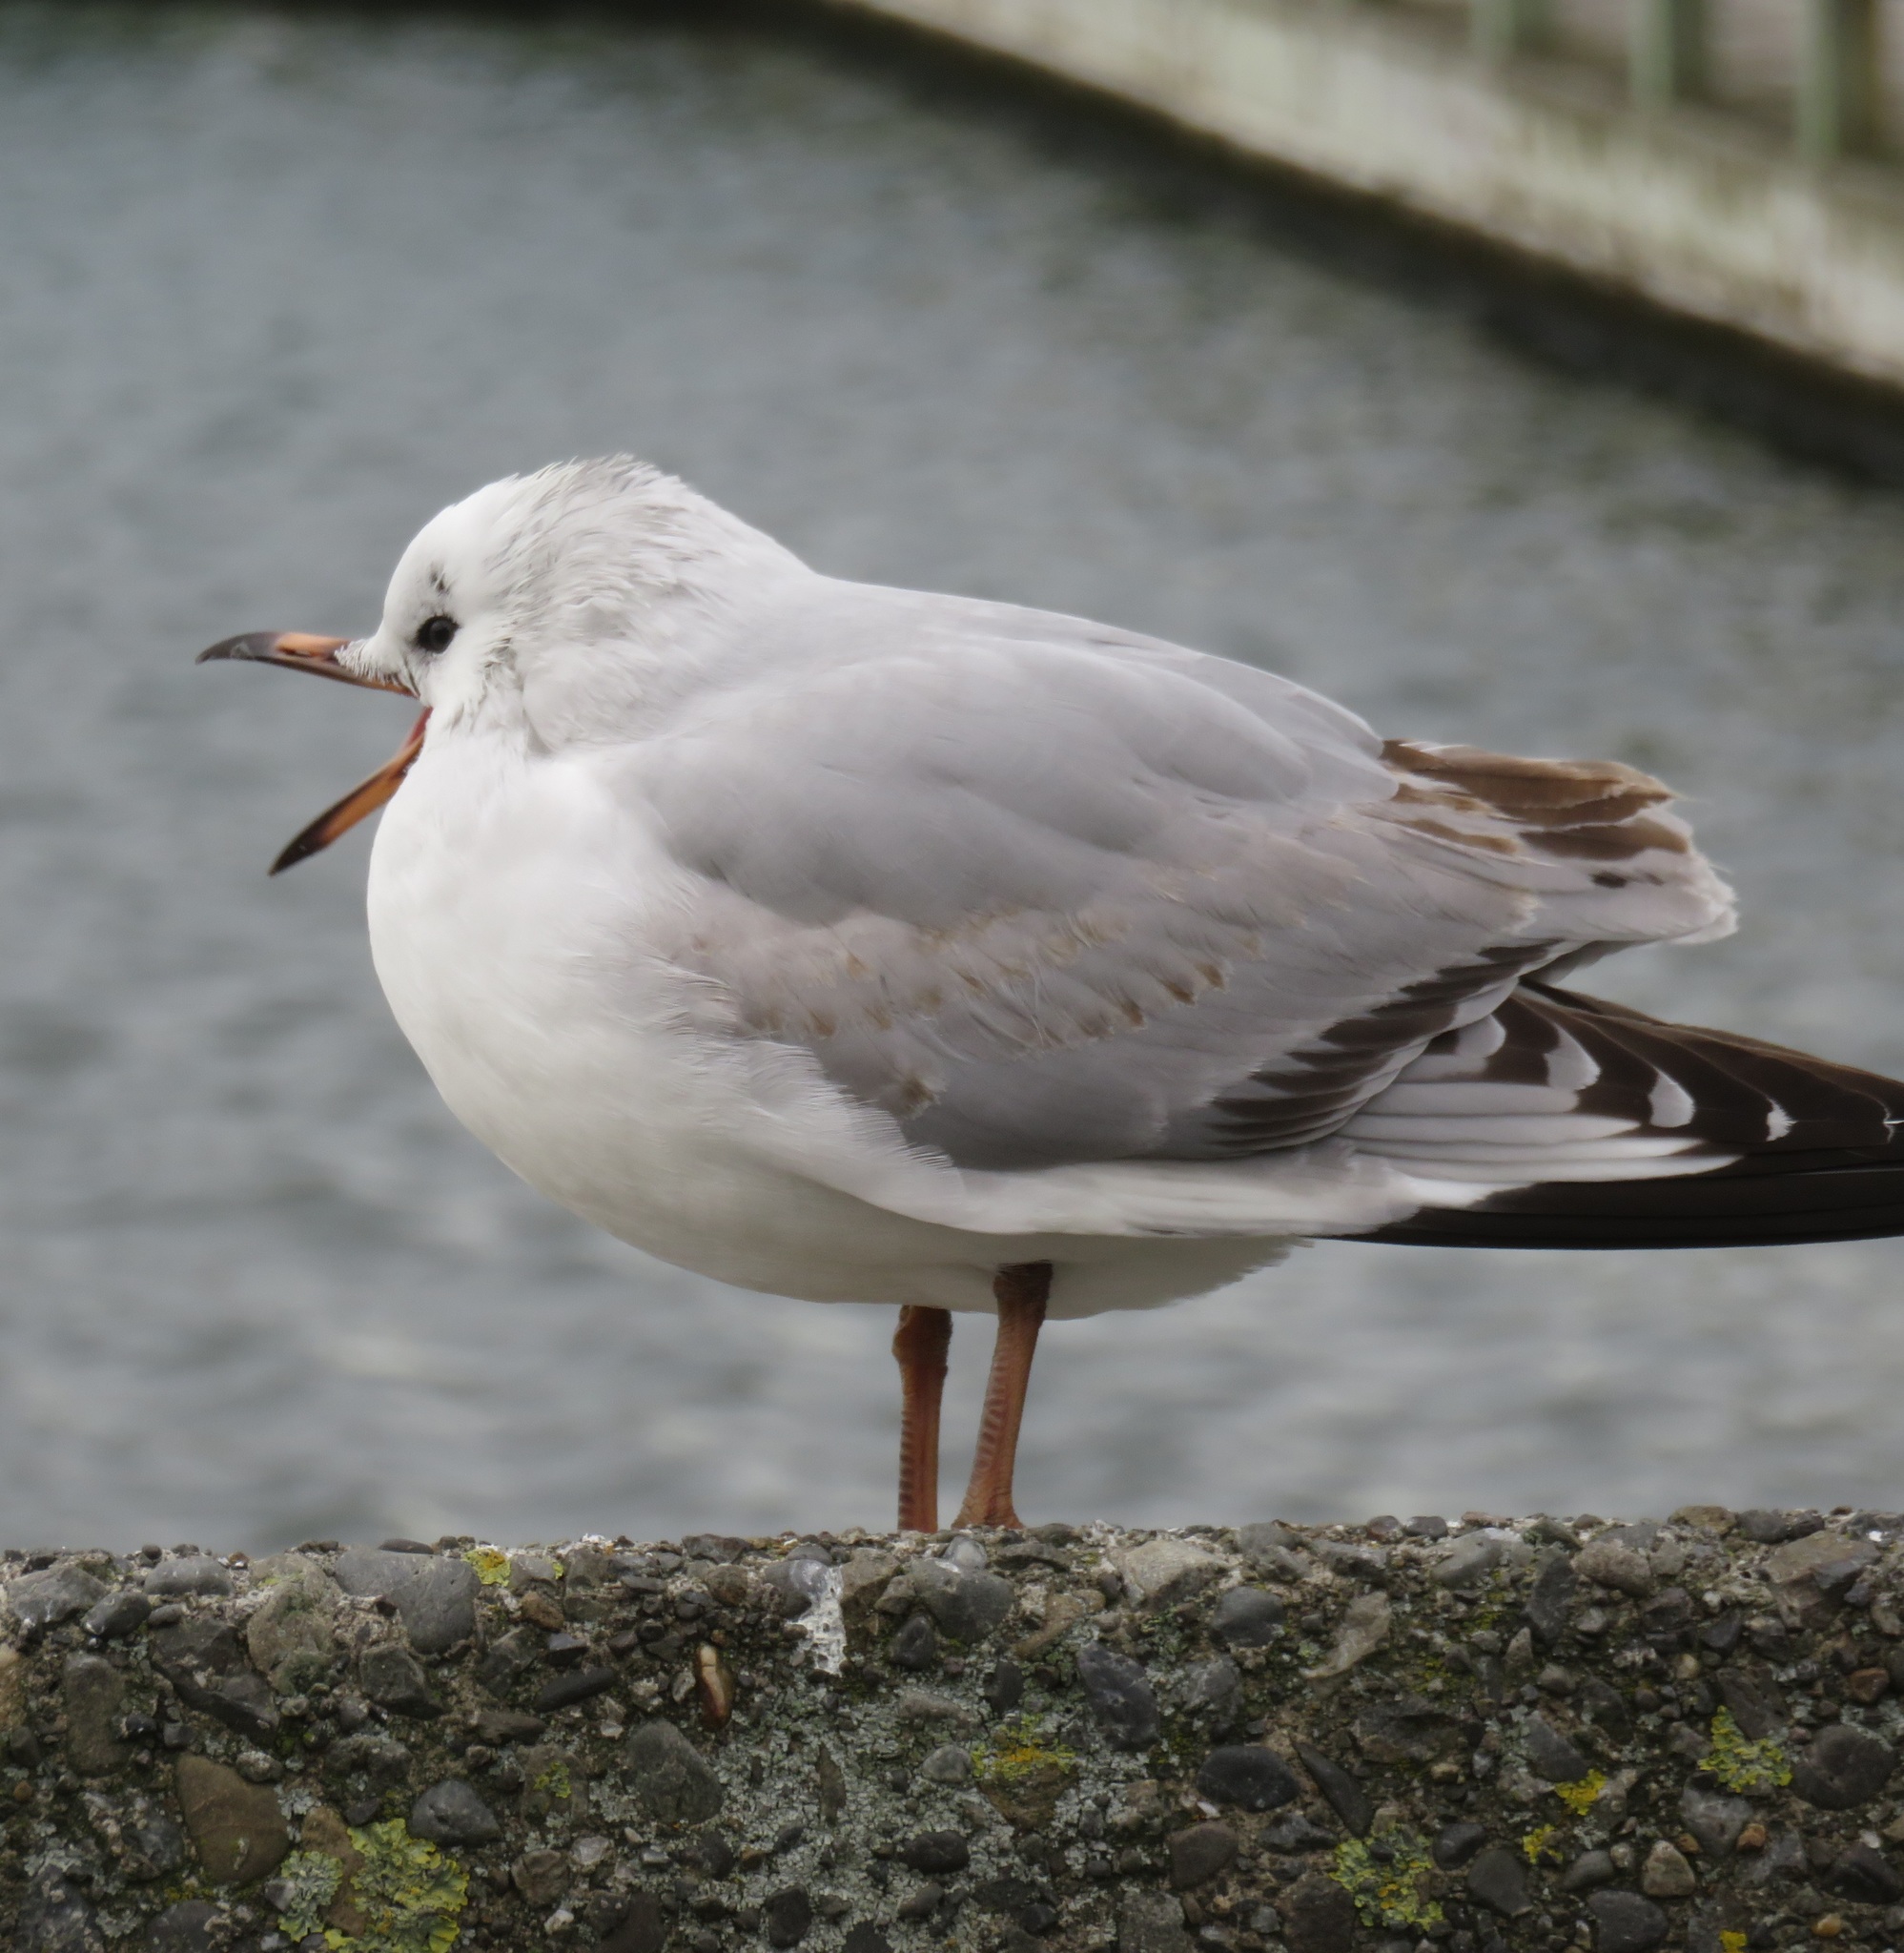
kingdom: Animalia
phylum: Chordata
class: Aves
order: Charadriiformes
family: Laridae
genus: Chroicocephalus
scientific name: Chroicocephalus novaehollandiae
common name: Silver gull
